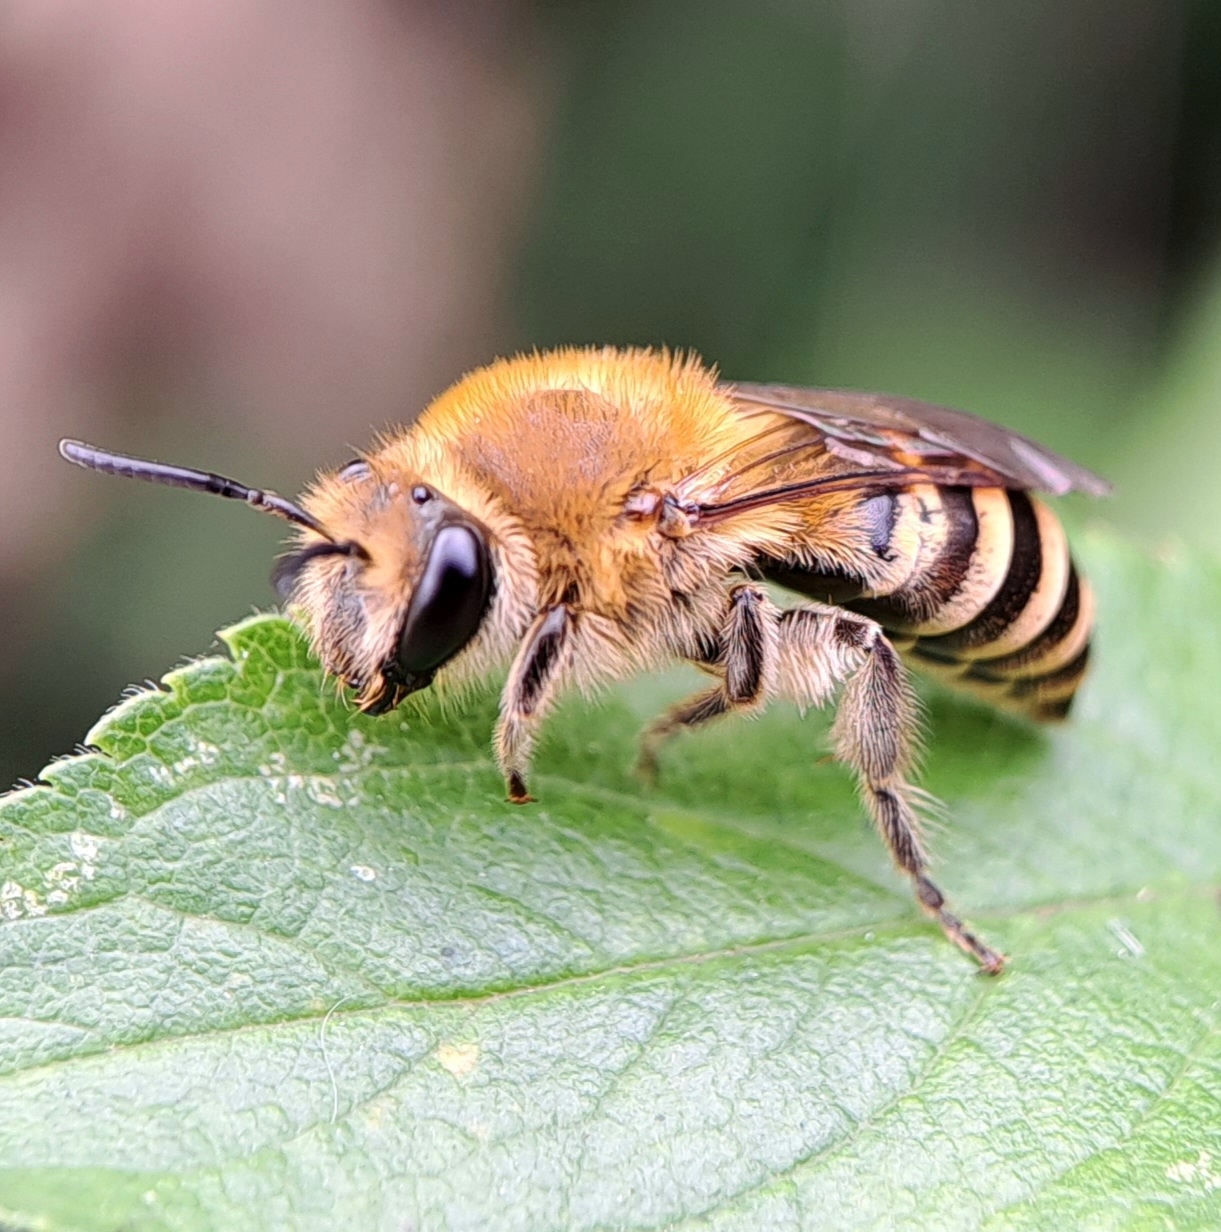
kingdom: Animalia
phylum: Arthropoda
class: Insecta
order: Hymenoptera
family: Colletidae
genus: Colletes
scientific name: Colletes hederae
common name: Ivy bee
